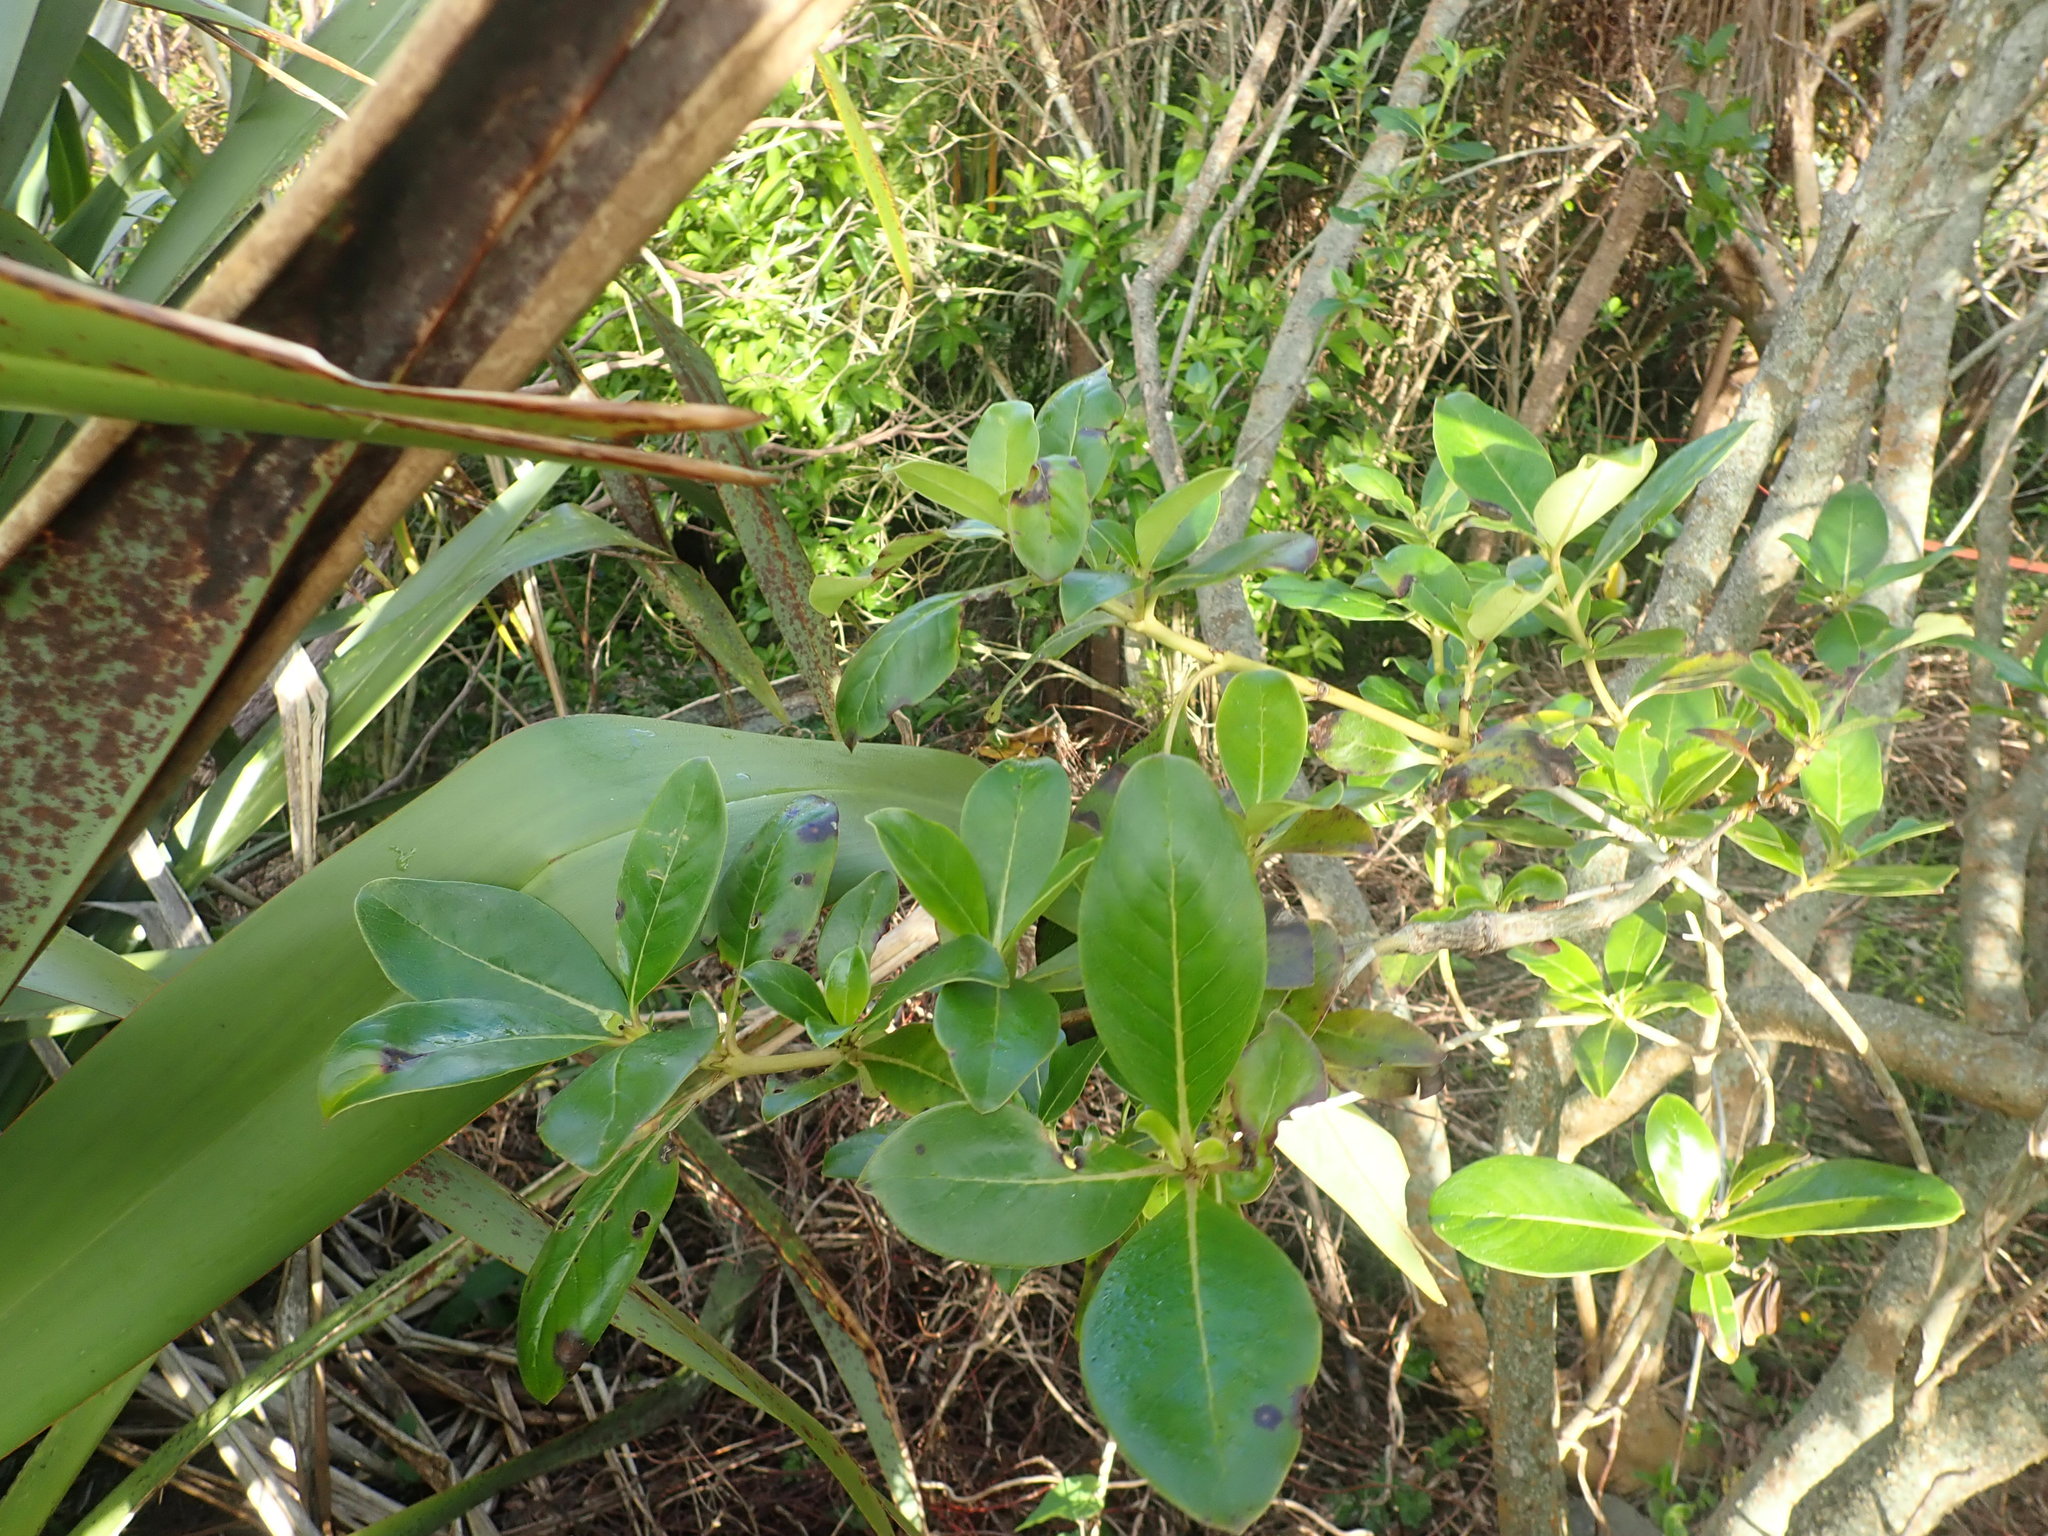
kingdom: Plantae
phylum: Tracheophyta
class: Magnoliopsida
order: Gentianales
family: Rubiaceae
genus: Coprosma
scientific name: Coprosma robusta
